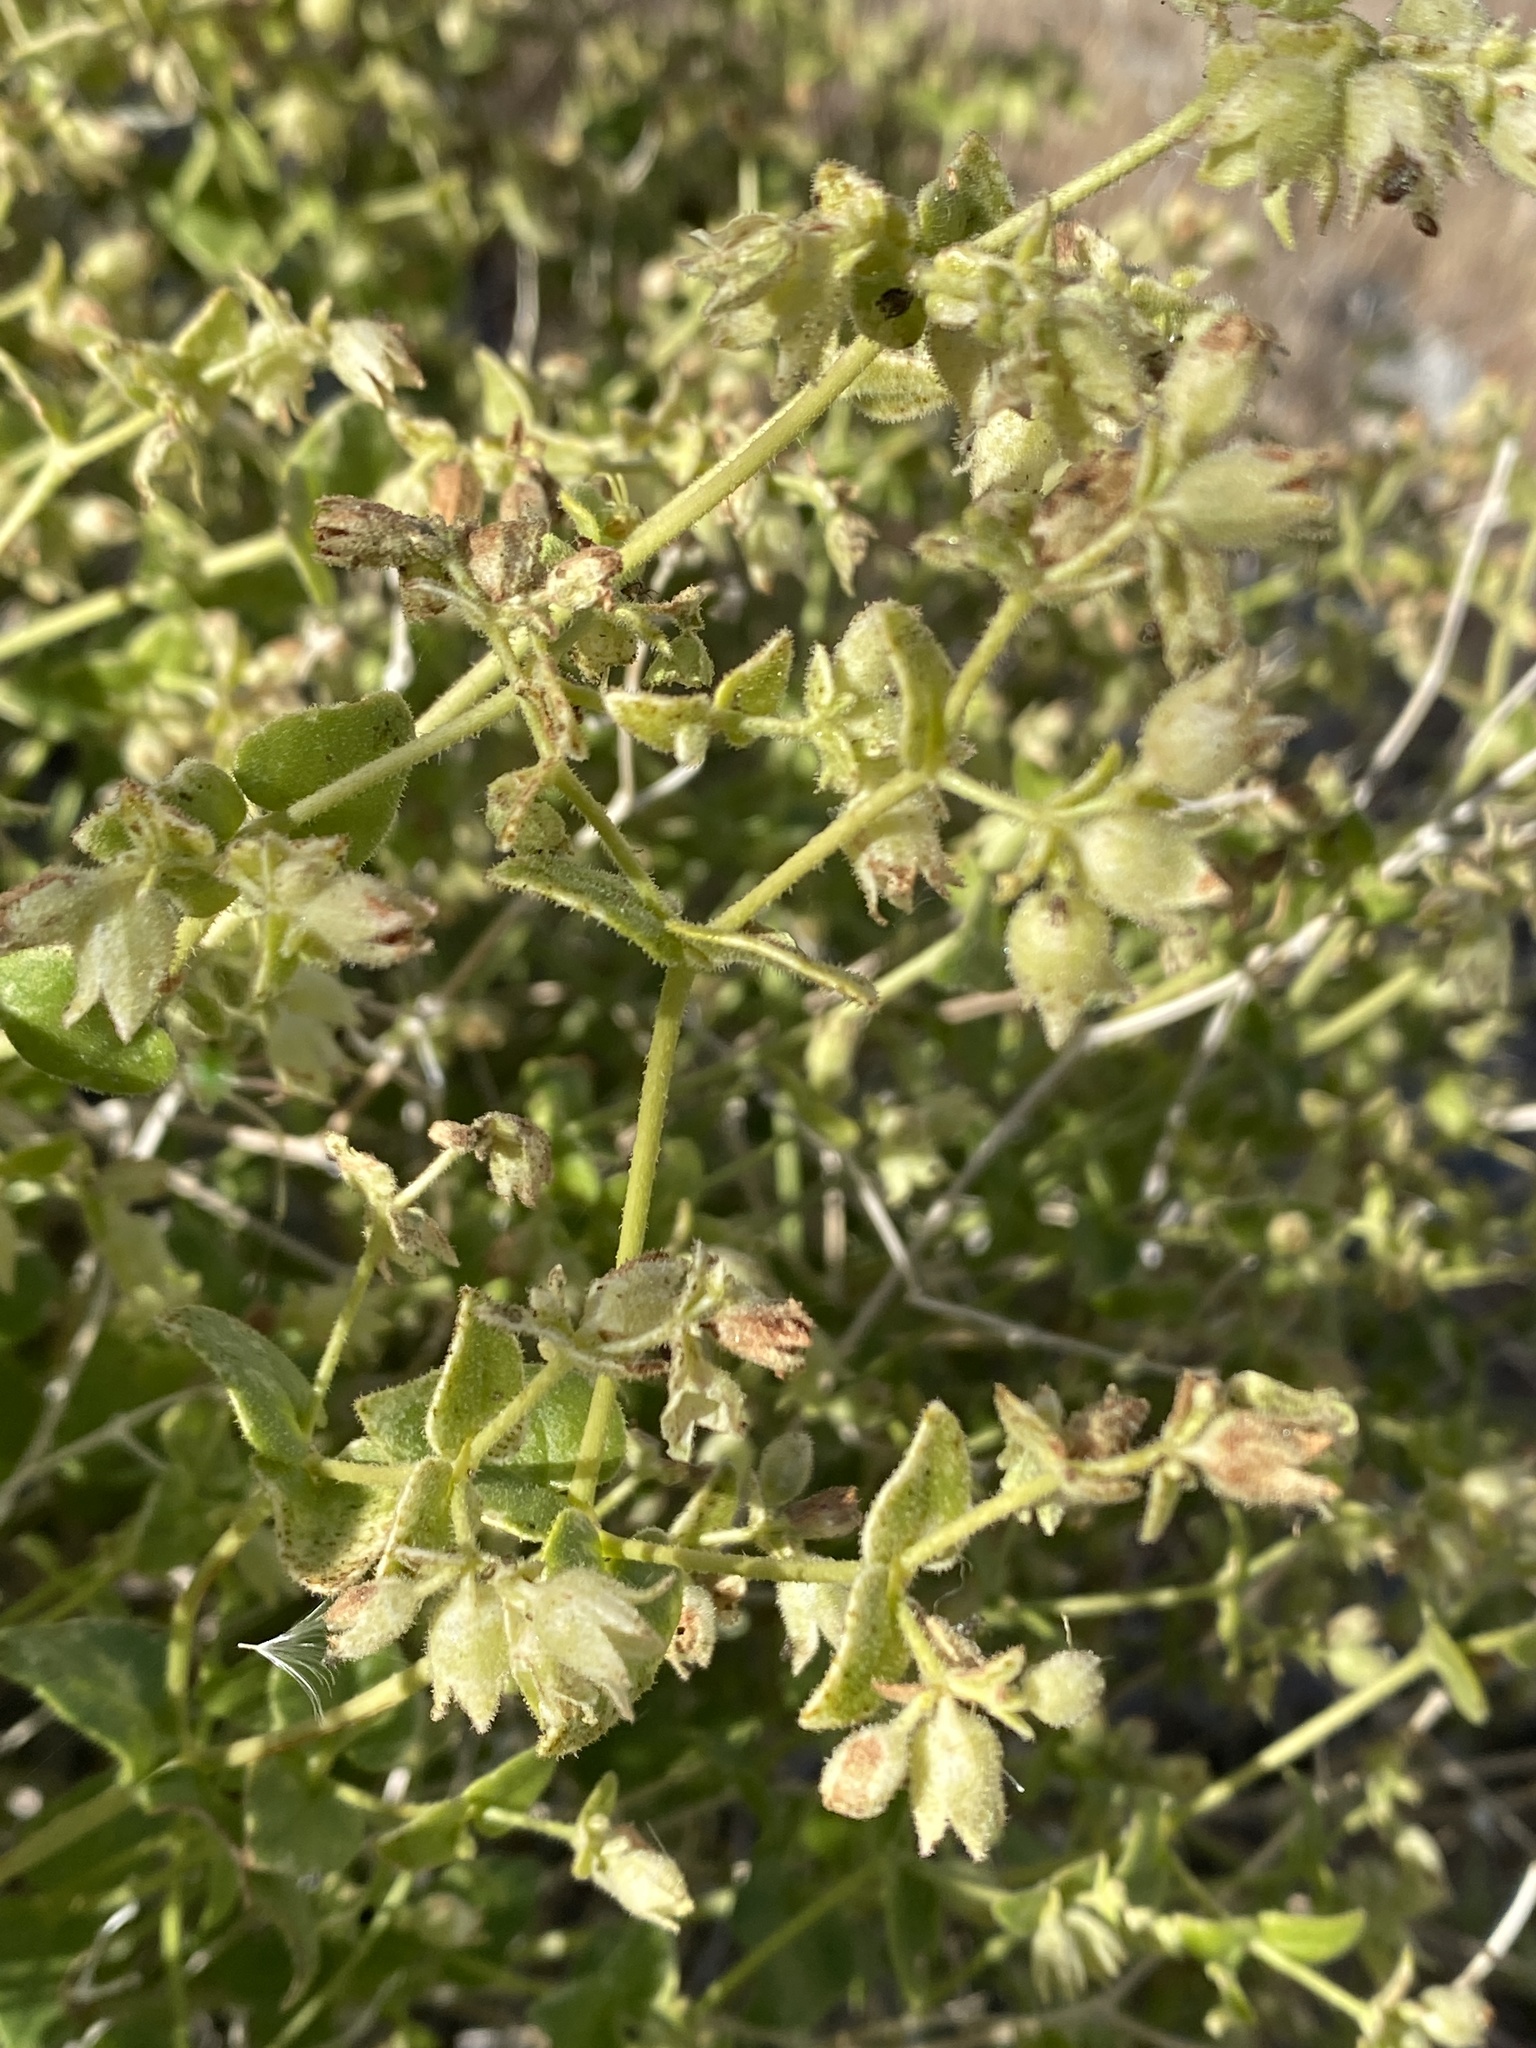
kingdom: Plantae
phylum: Tracheophyta
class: Magnoliopsida
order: Caryophyllales
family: Nyctaginaceae
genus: Mirabilis
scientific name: Mirabilis laevis
